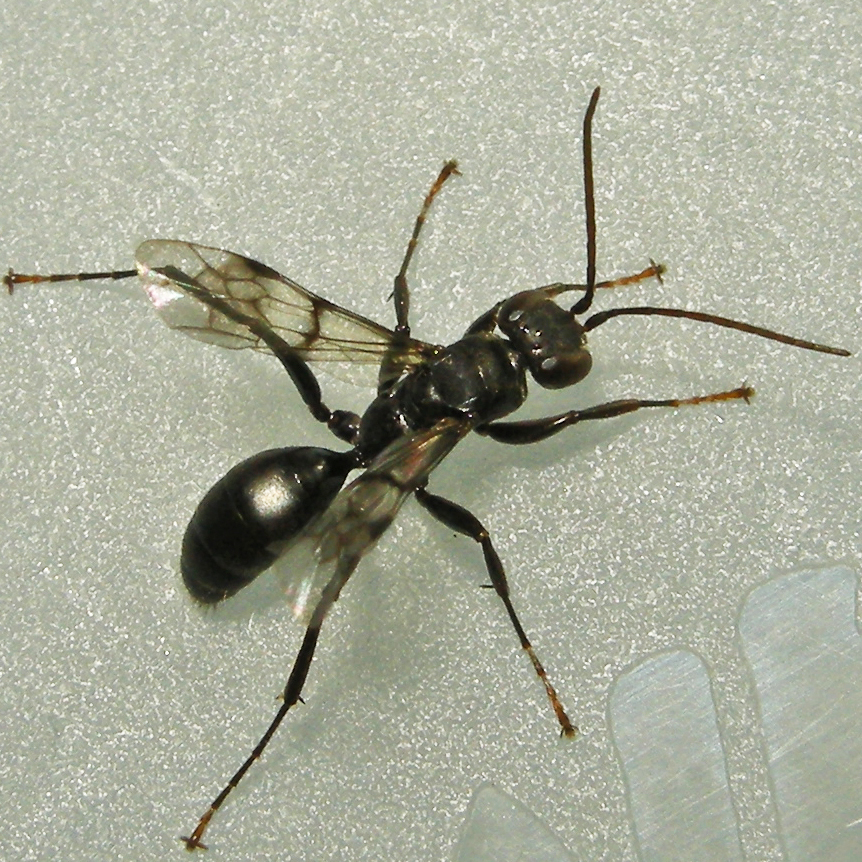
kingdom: Animalia
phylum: Arthropoda
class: Insecta
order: Hymenoptera
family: Pompilidae
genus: Dipogon
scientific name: Dipogon sayi
